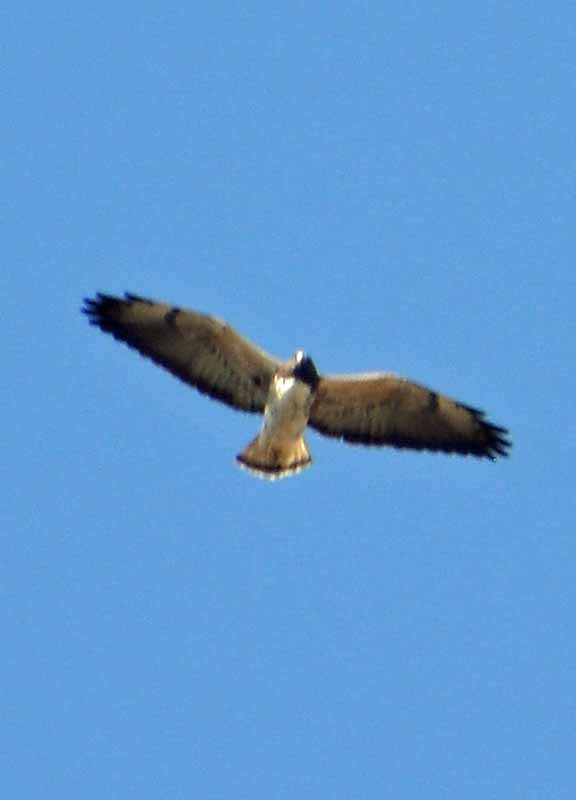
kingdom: Animalia
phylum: Chordata
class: Aves
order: Accipitriformes
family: Accipitridae
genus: Buteo
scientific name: Buteo albicaudatus
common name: White-tailed hawk
